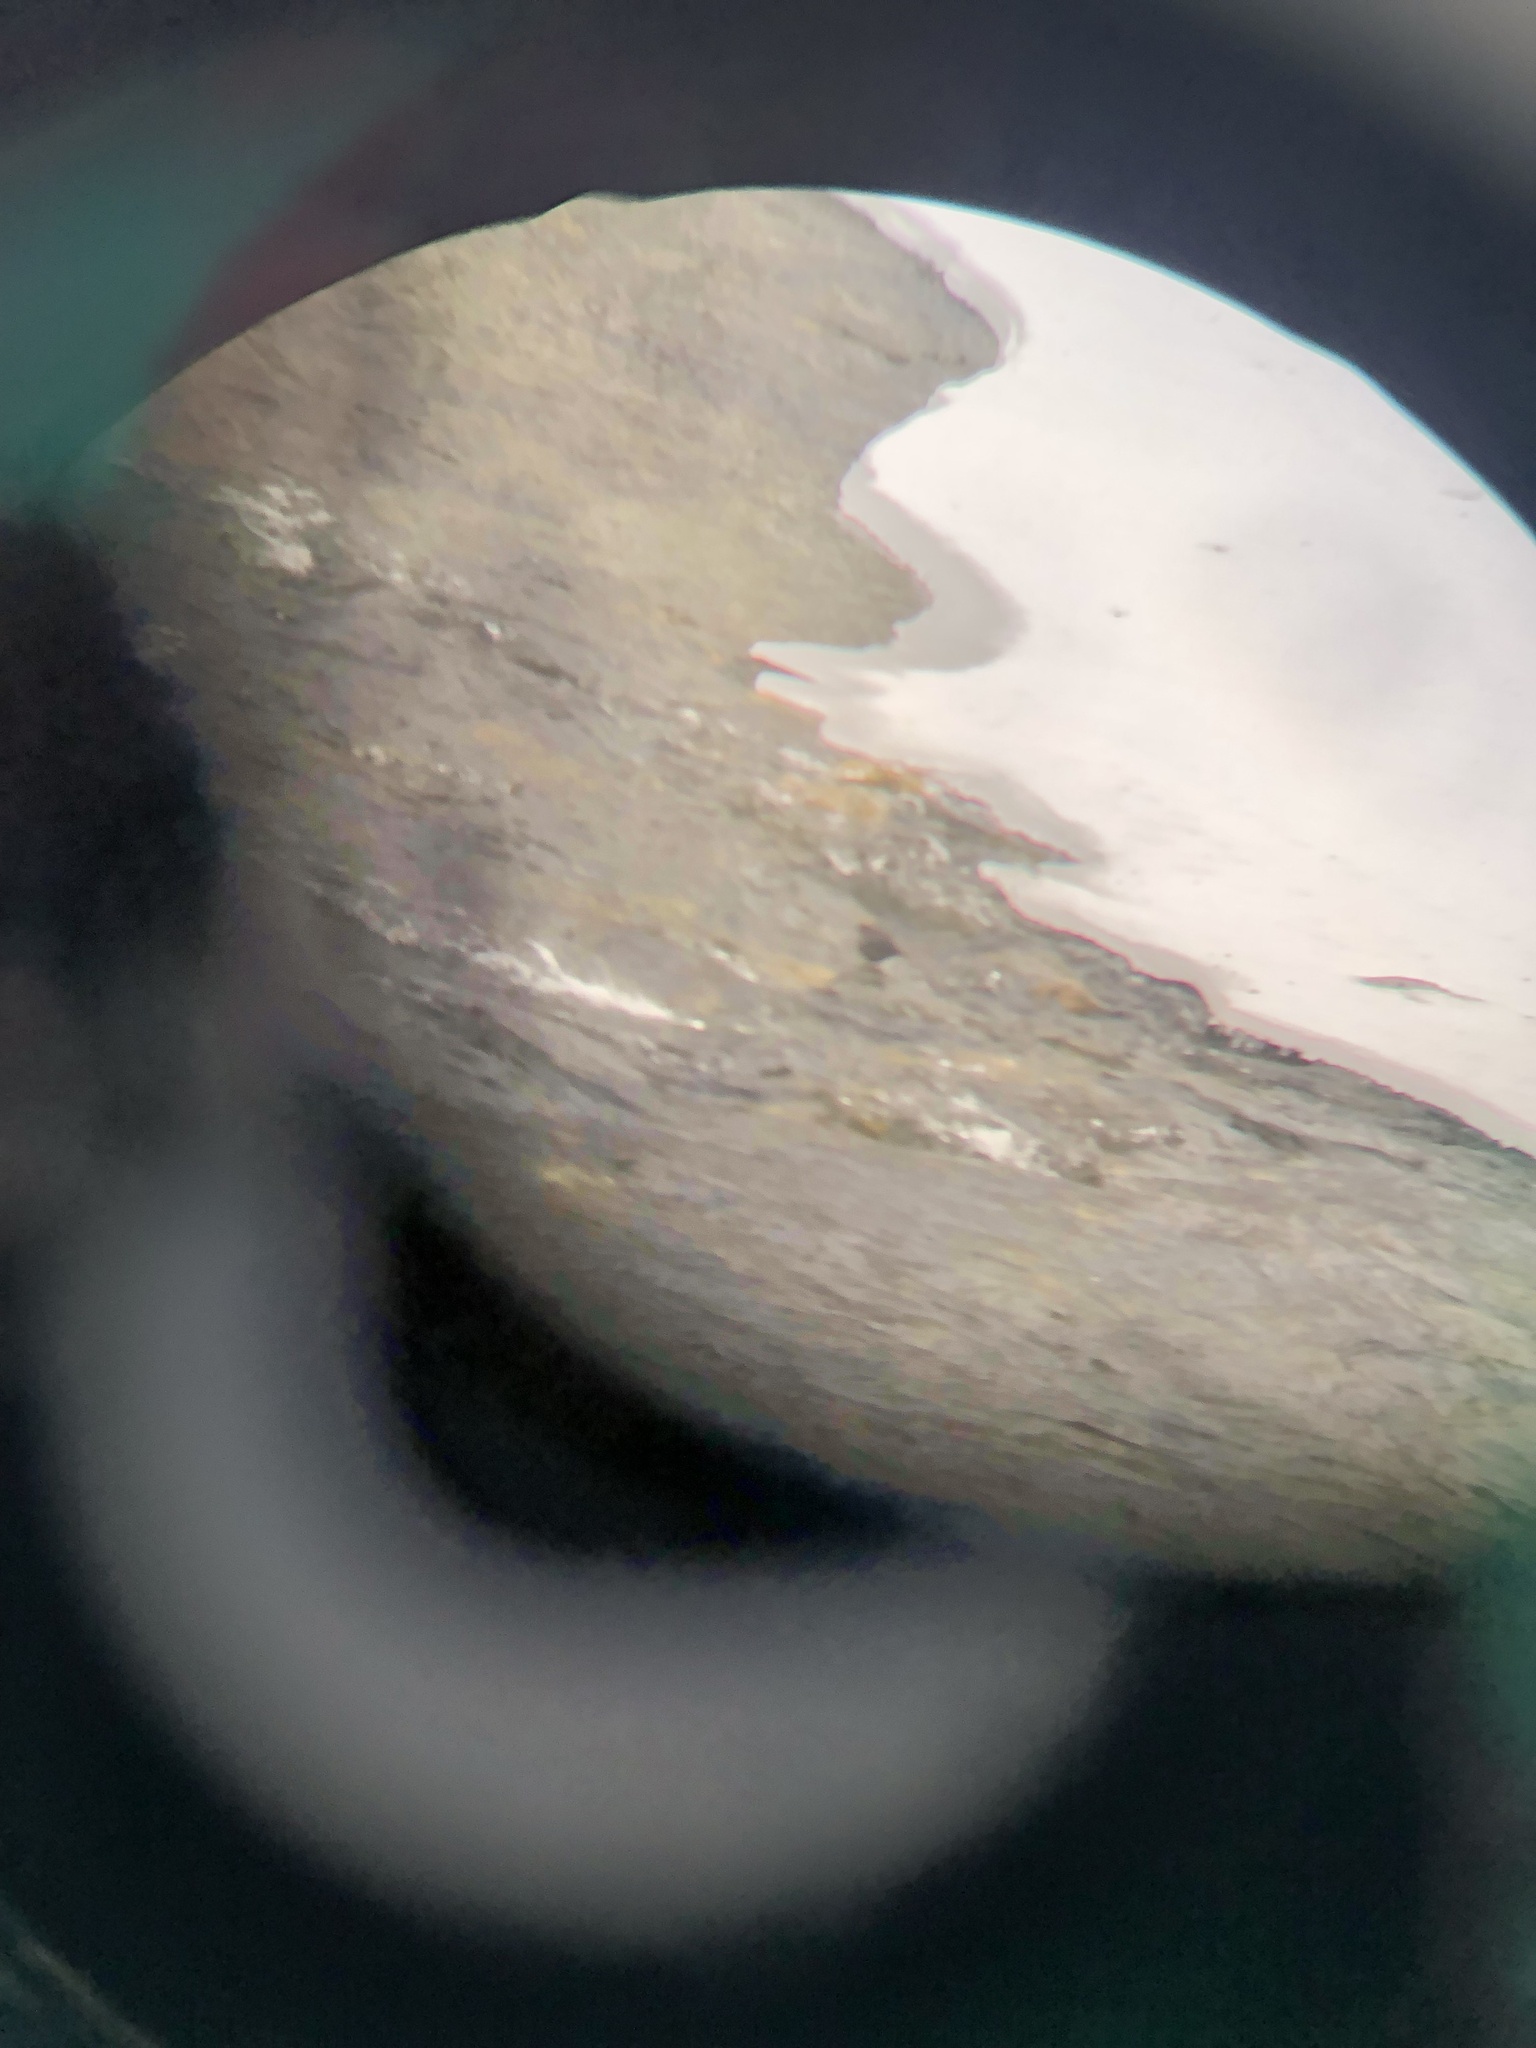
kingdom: Animalia
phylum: Chordata
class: Aves
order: Passeriformes
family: Cinclidae
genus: Cinclus
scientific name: Cinclus mexicanus
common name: American dipper
